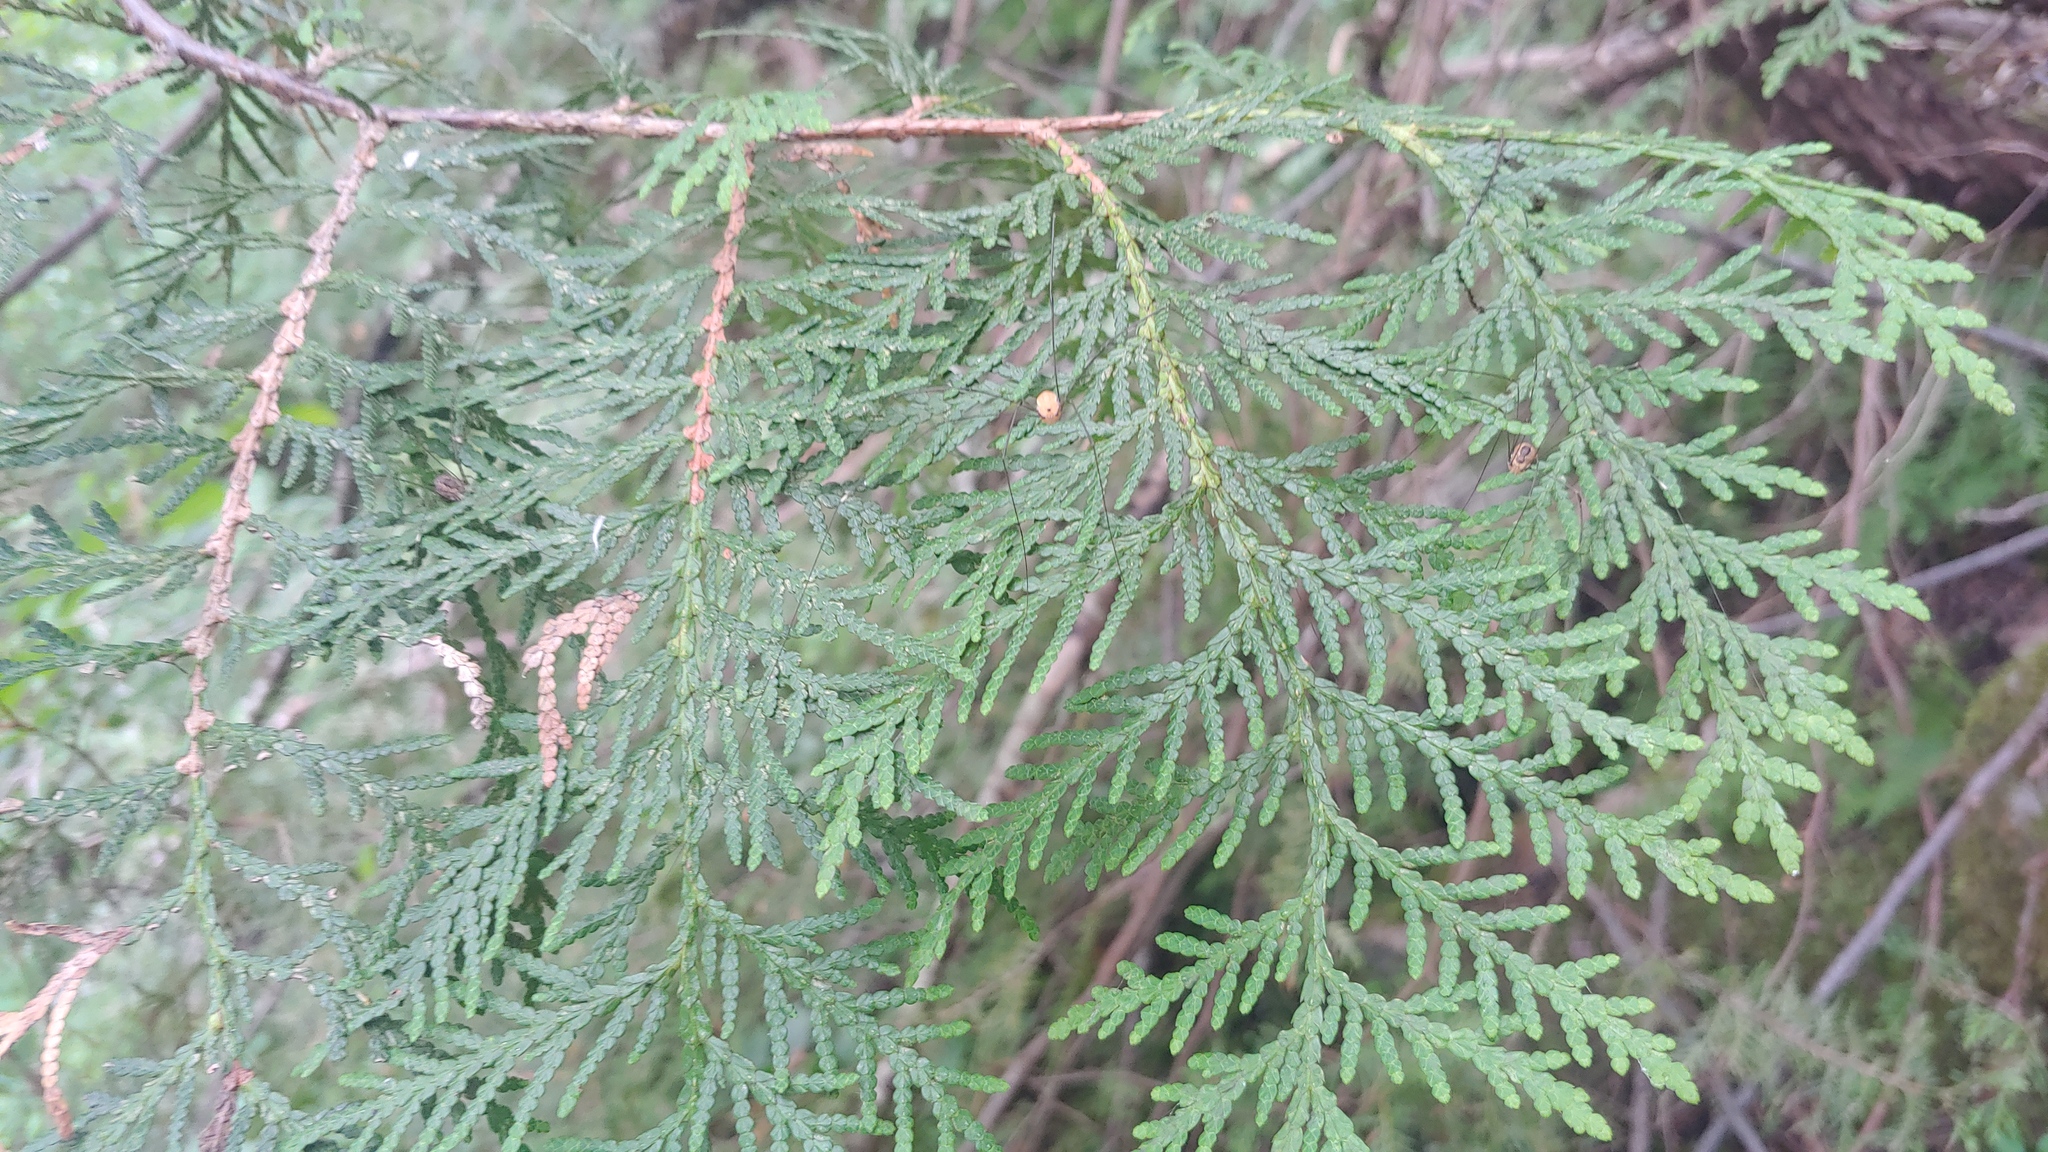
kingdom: Plantae
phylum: Tracheophyta
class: Pinopsida
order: Pinales
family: Cupressaceae
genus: Thuja
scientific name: Thuja occidentalis
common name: Northern white-cedar
